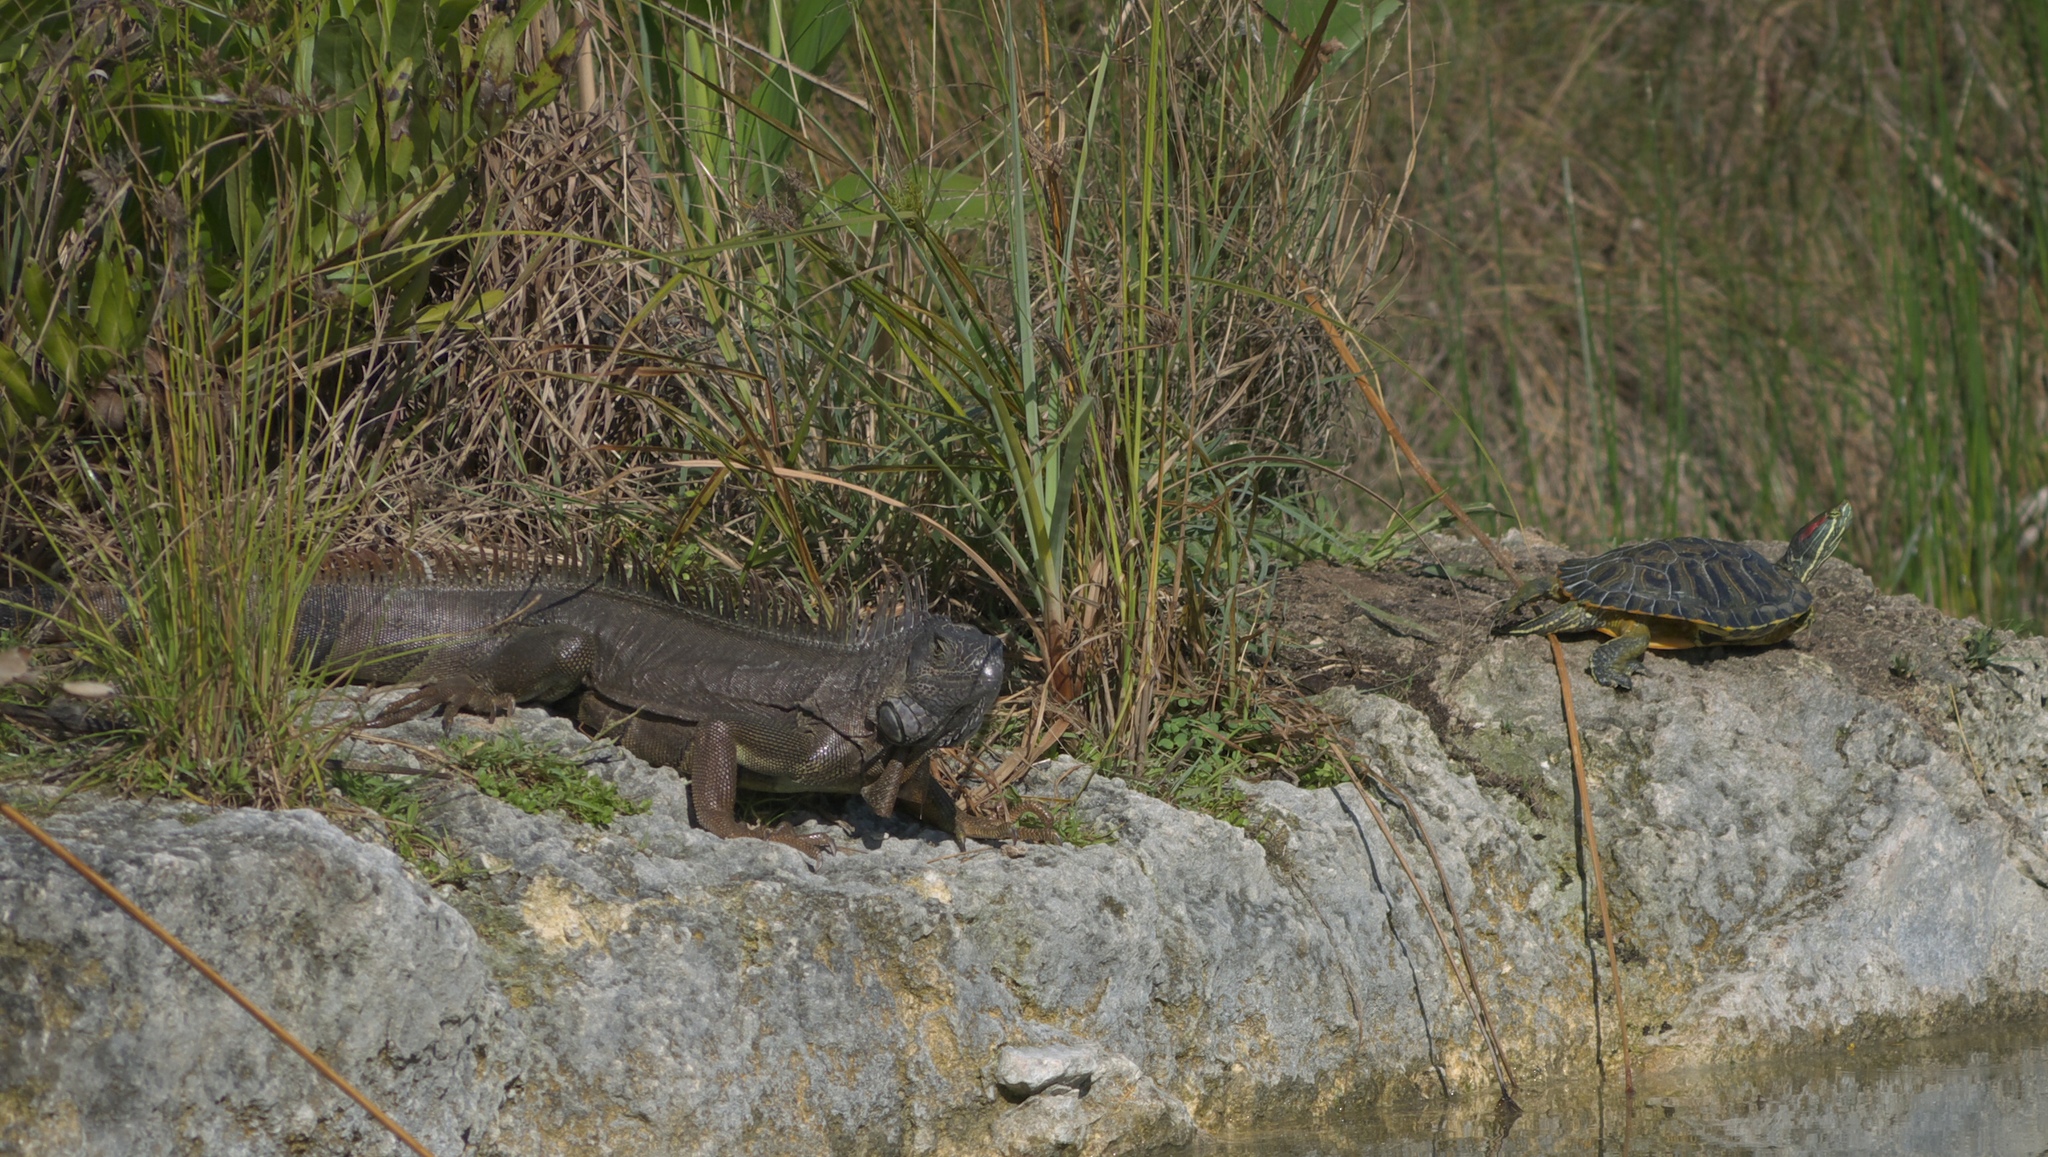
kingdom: Animalia
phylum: Chordata
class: Squamata
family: Iguanidae
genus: Iguana
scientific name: Iguana iguana
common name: Green iguana
